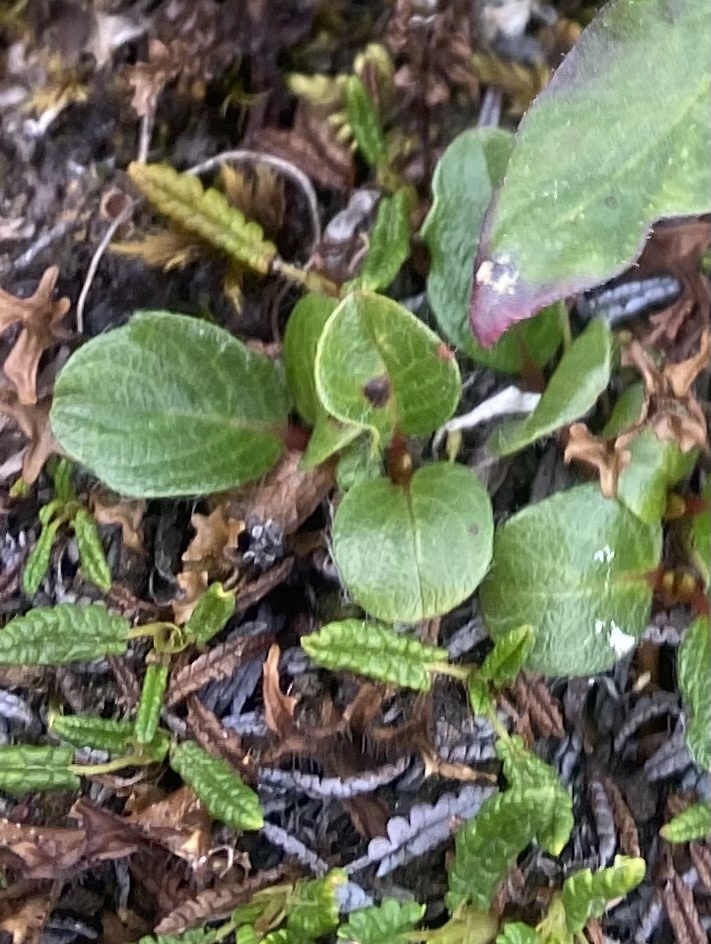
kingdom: Plantae
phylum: Tracheophyta
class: Magnoliopsida
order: Malpighiales
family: Salicaceae
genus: Salix
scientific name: Salix polaris
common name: Polar willow
